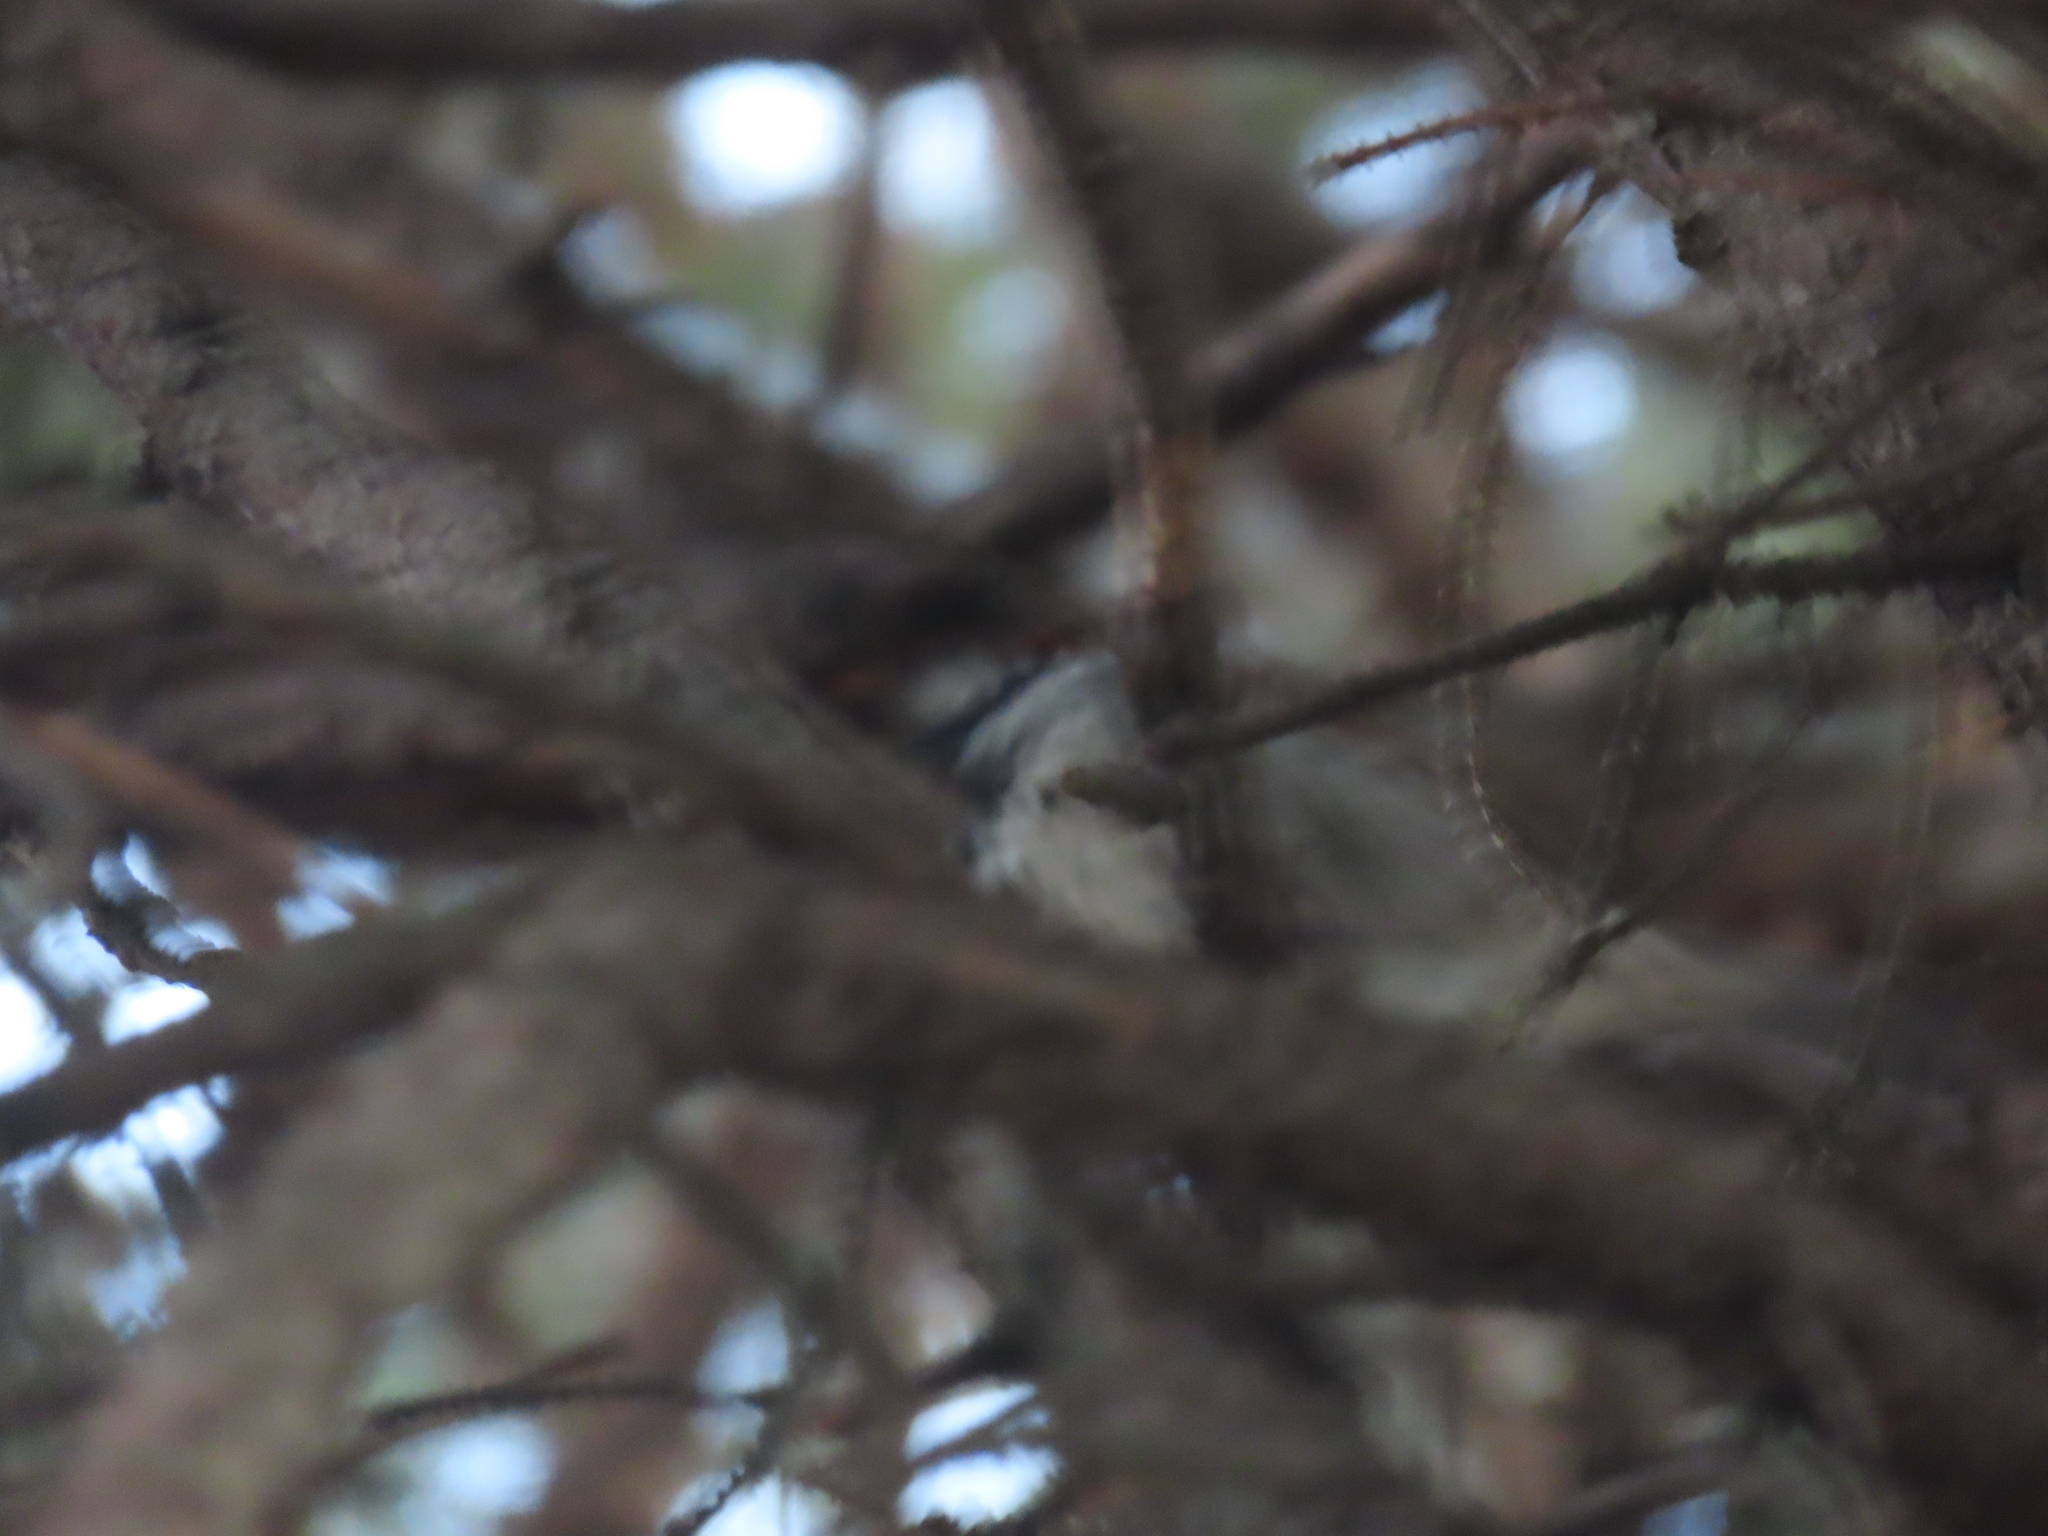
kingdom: Animalia
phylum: Chordata
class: Aves
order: Passeriformes
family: Passeridae
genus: Passer
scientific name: Passer domesticus
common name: House sparrow
